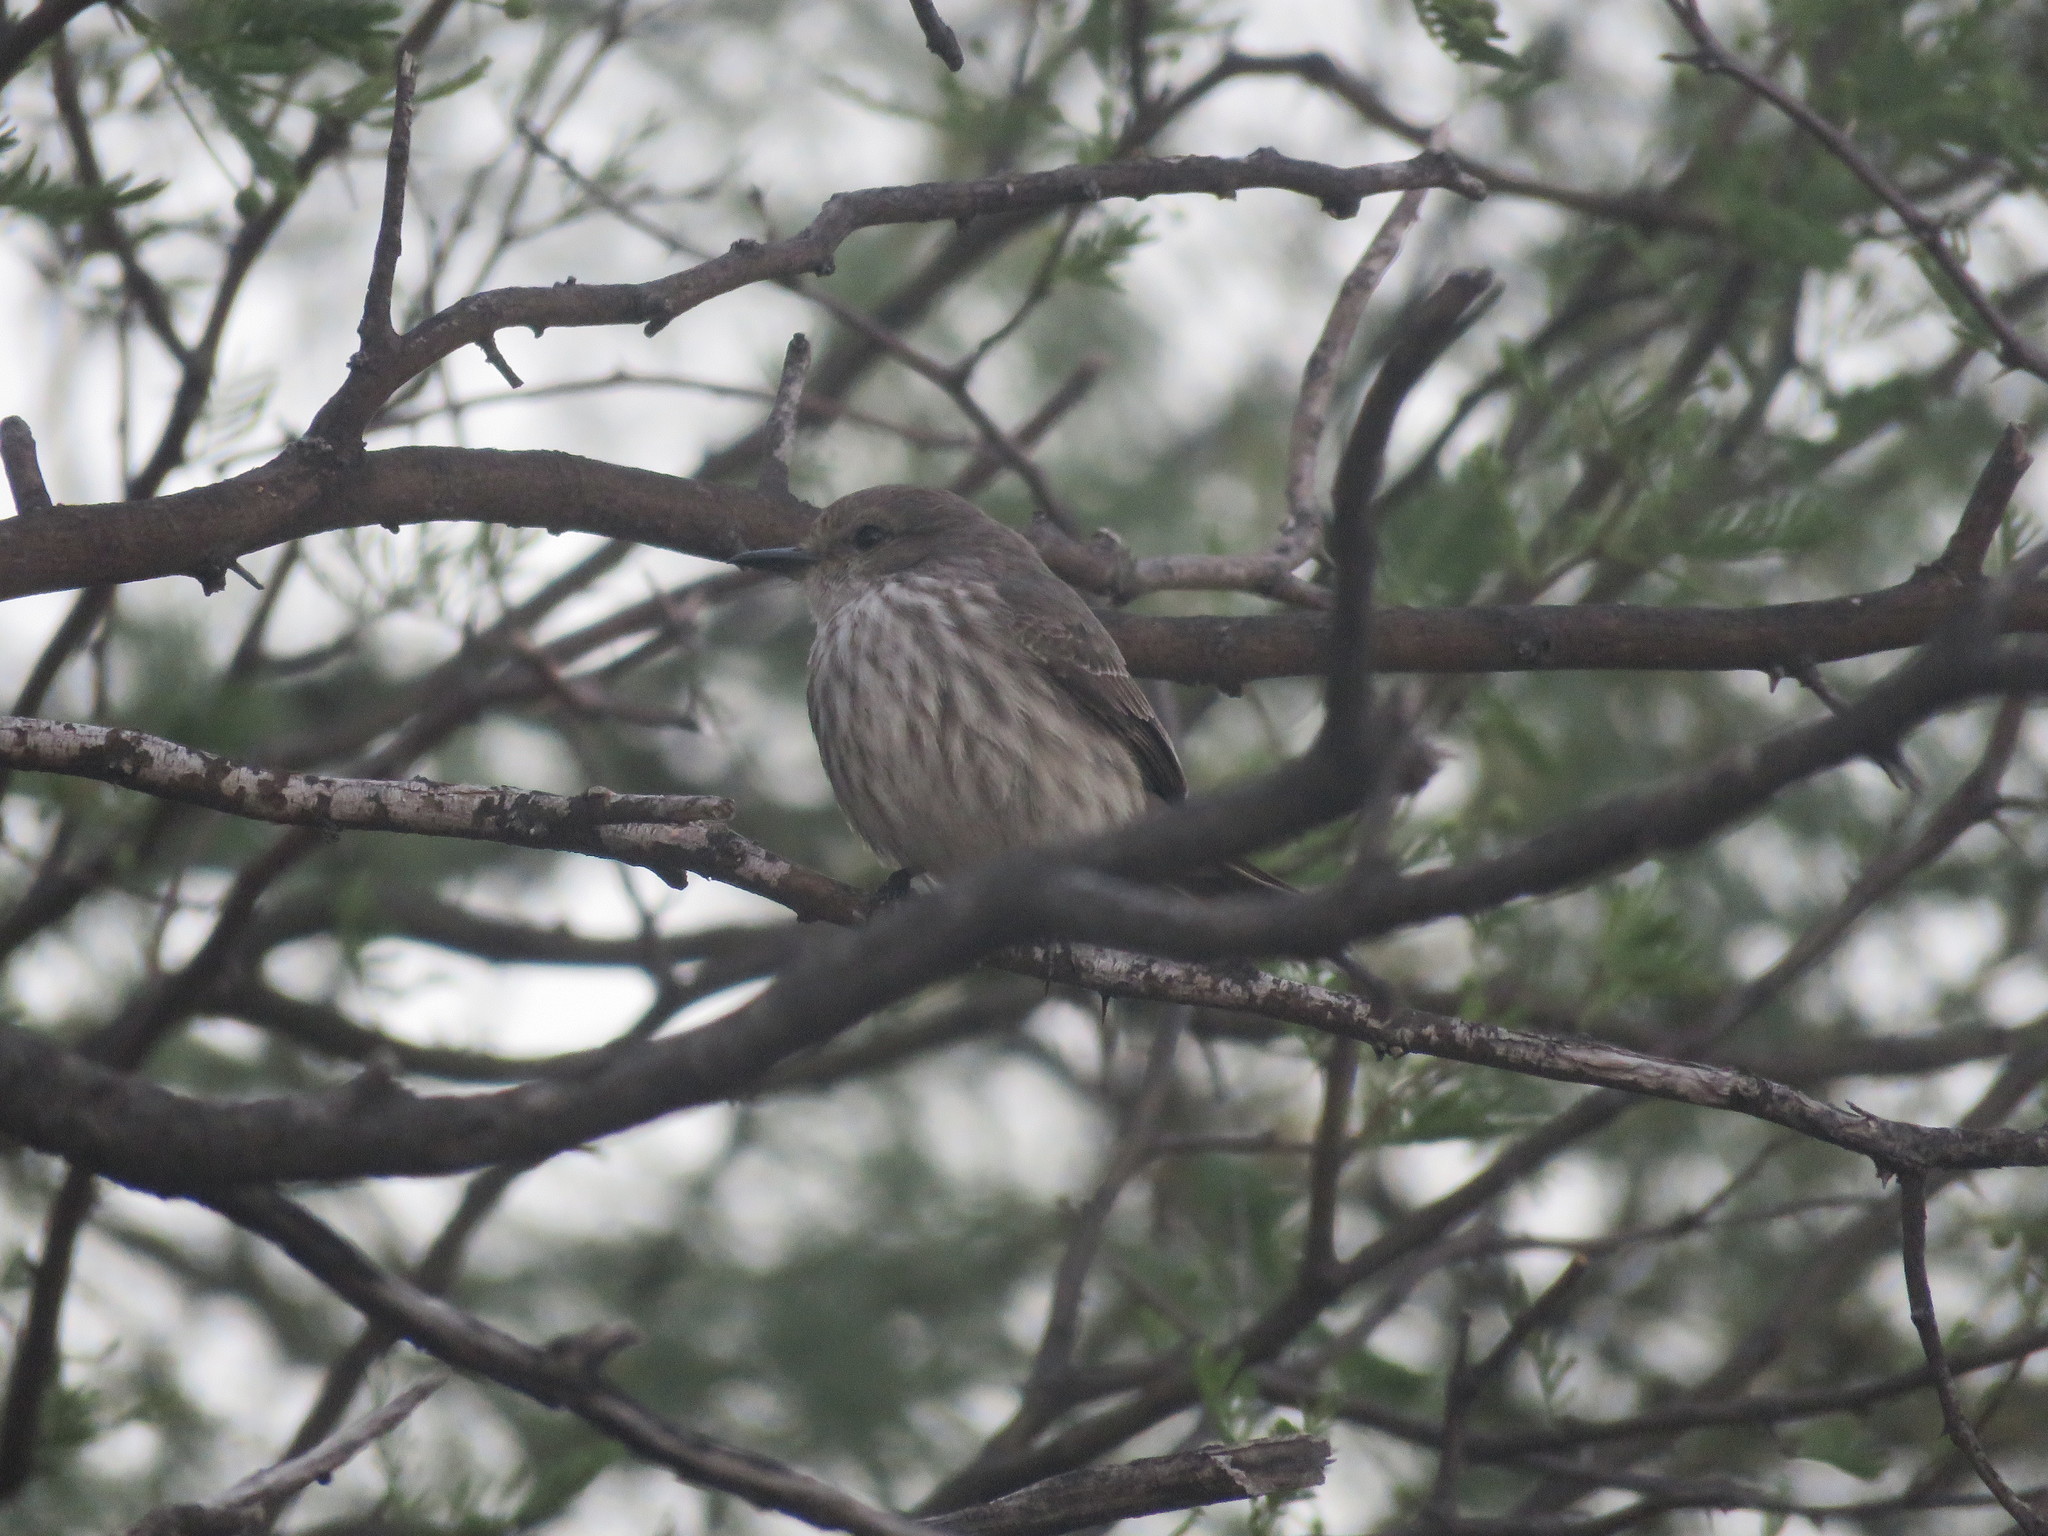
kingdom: Animalia
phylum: Chordata
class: Aves
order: Passeriformes
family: Tyrannidae
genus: Pyrocephalus
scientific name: Pyrocephalus rubinus
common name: Vermilion flycatcher
